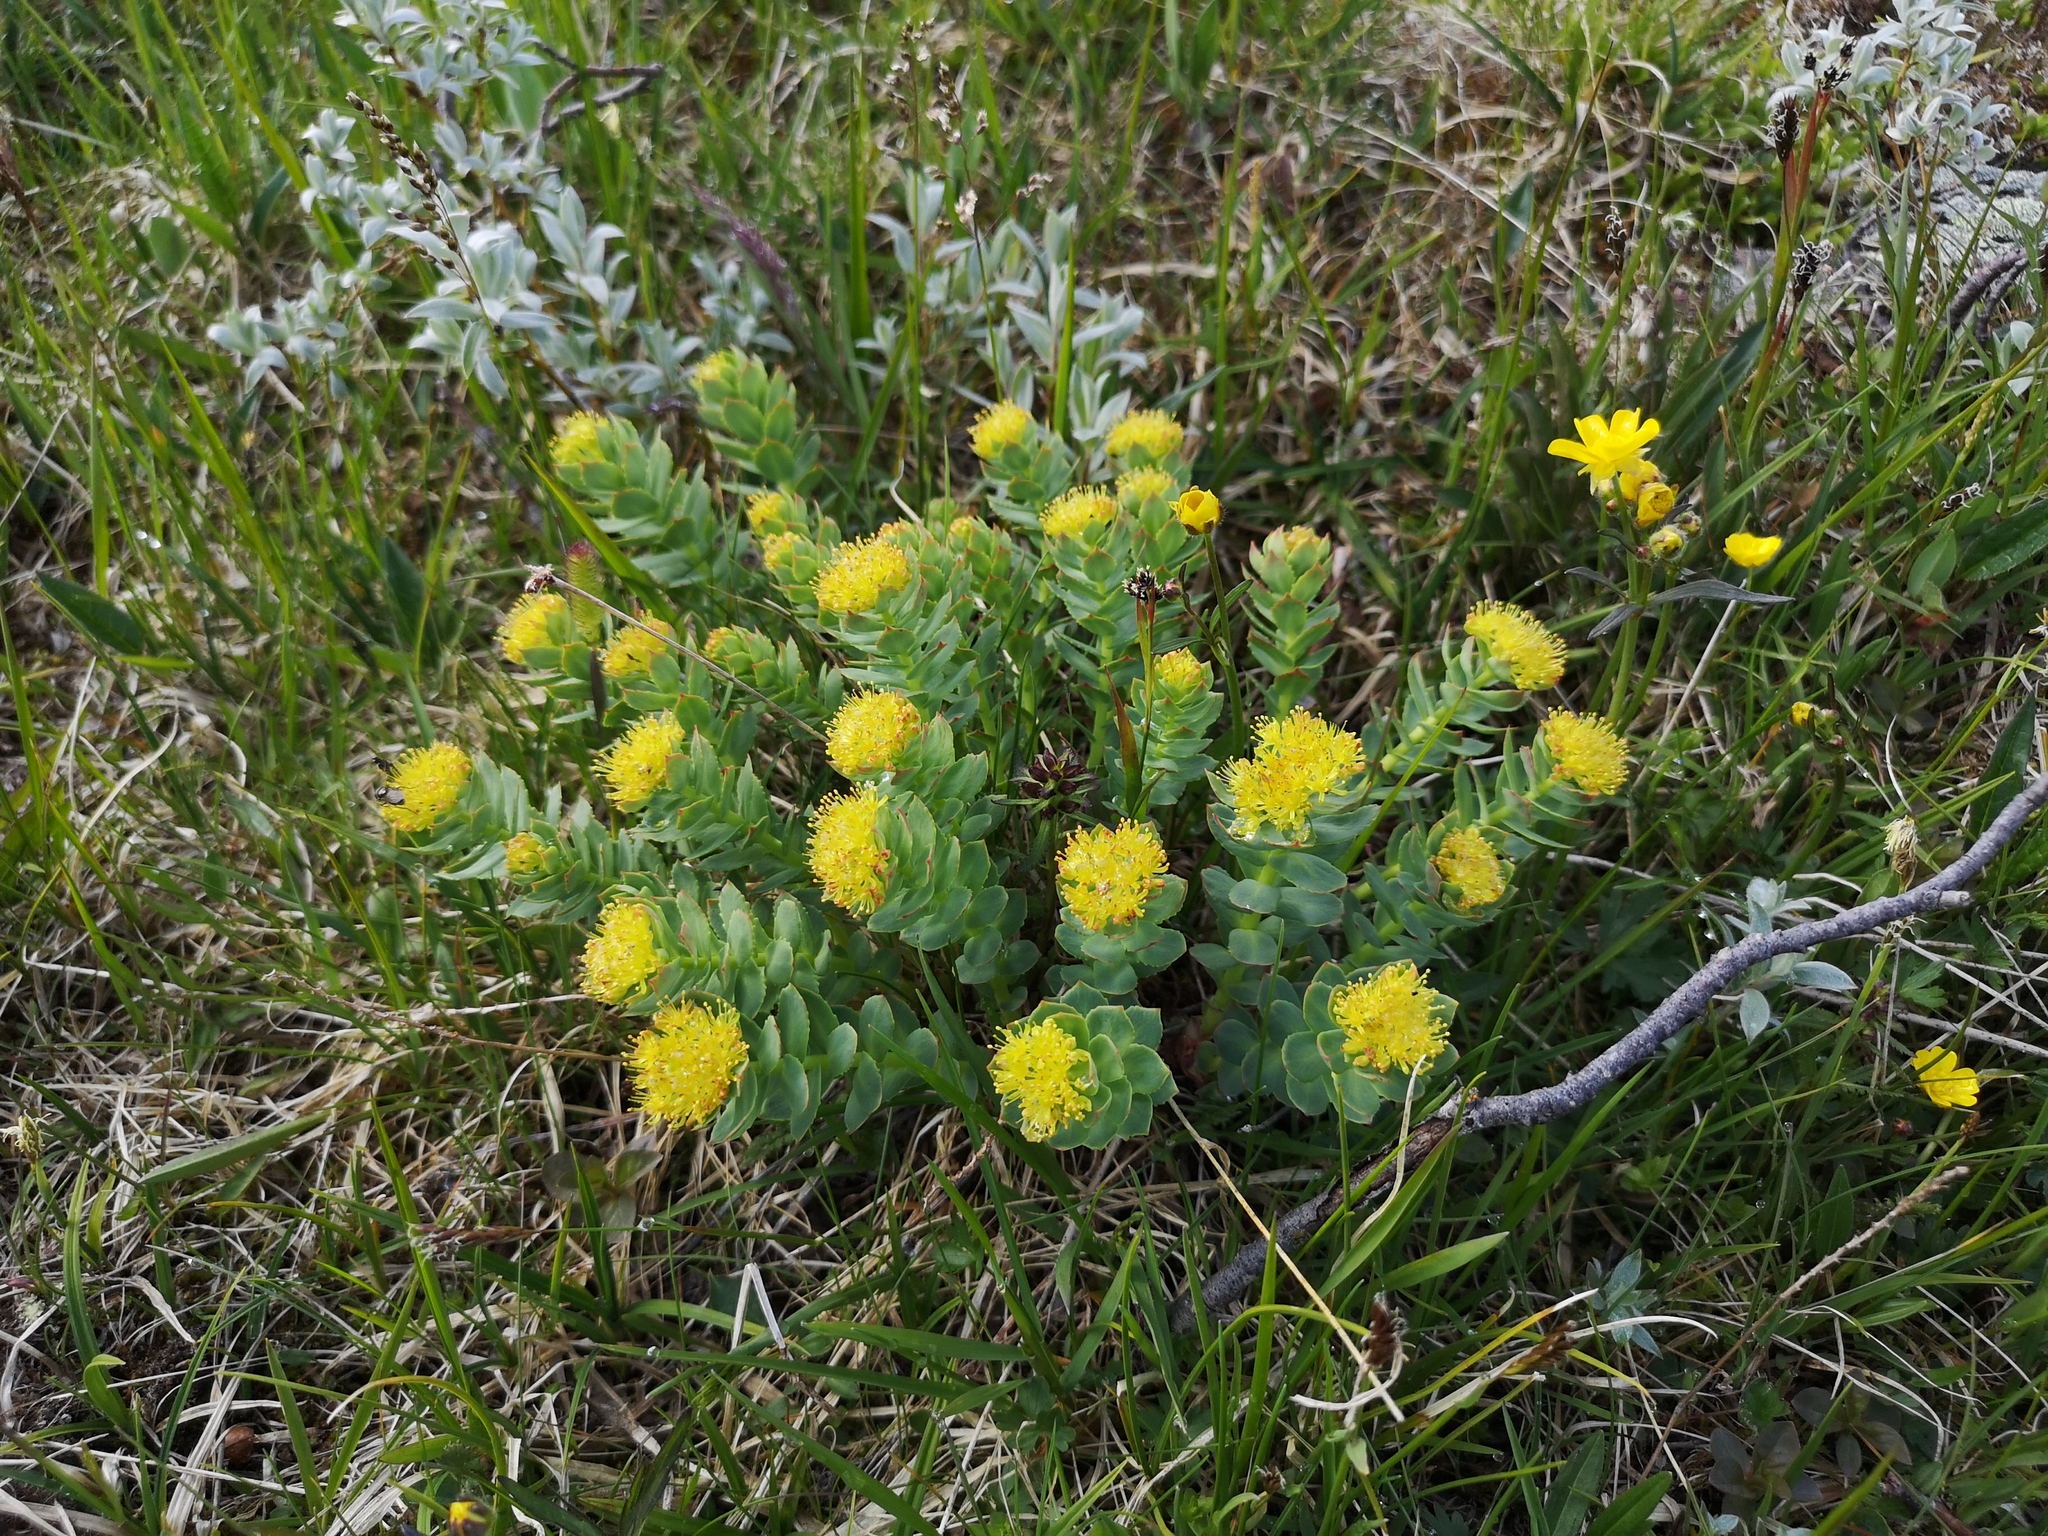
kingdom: Plantae
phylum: Tracheophyta
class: Magnoliopsida
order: Saxifragales
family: Crassulaceae
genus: Rhodiola
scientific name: Rhodiola rosea
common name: Roseroot
